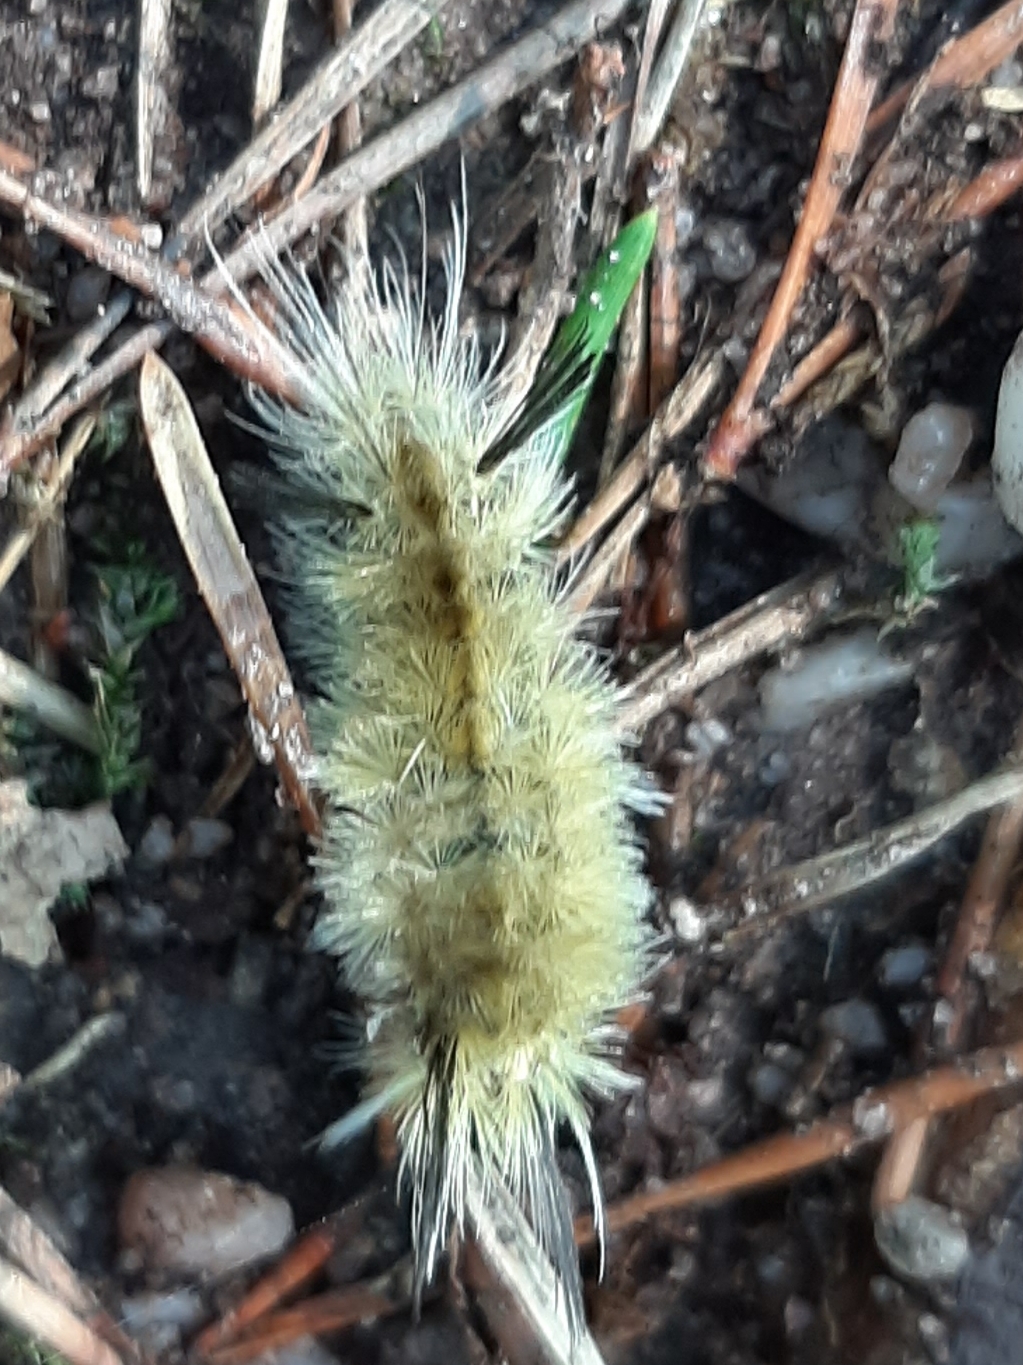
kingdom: Animalia
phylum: Arthropoda
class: Insecta
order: Lepidoptera
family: Erebidae
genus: Halysidota
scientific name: Halysidota tessellaris
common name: Banded tussock moth
